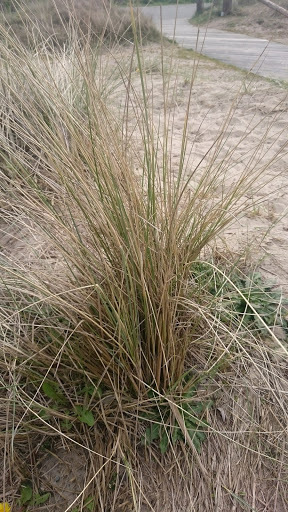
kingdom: Plantae
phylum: Tracheophyta
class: Liliopsida
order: Poales
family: Poaceae
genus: Calamagrostis
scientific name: Calamagrostis arenaria
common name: European beachgrass
